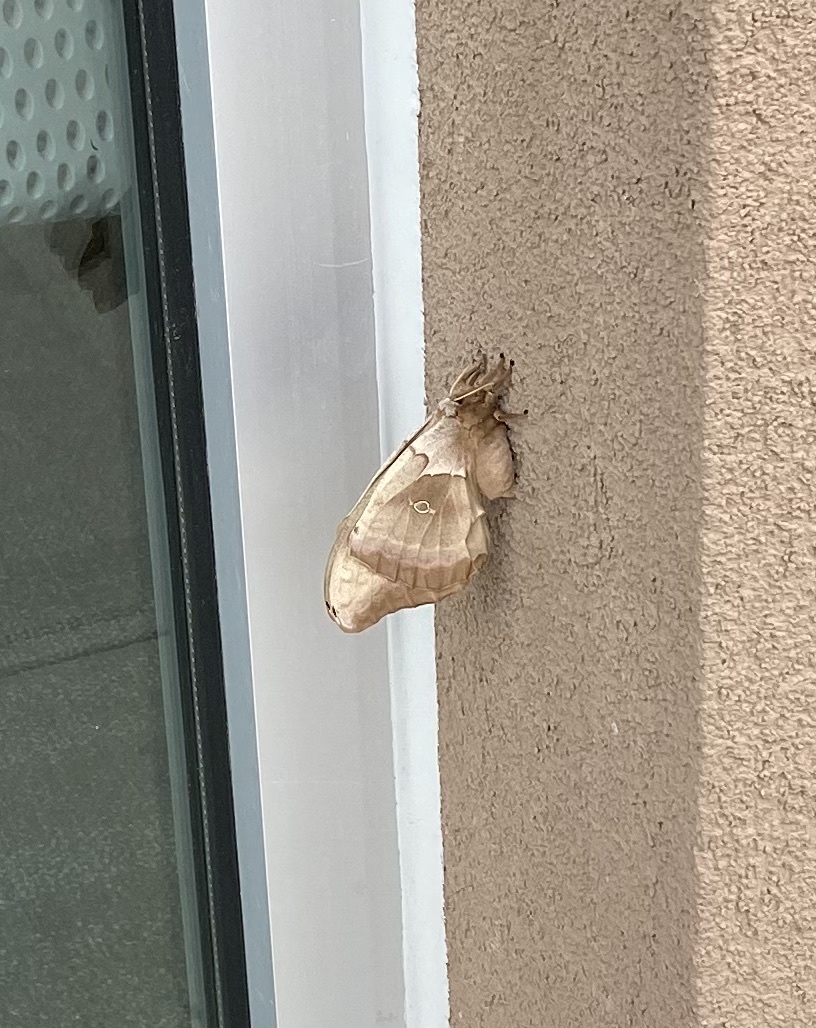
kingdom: Animalia
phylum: Arthropoda
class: Insecta
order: Lepidoptera
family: Saturniidae
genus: Antheraea
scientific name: Antheraea polyphemus
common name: Polyphemus moth
